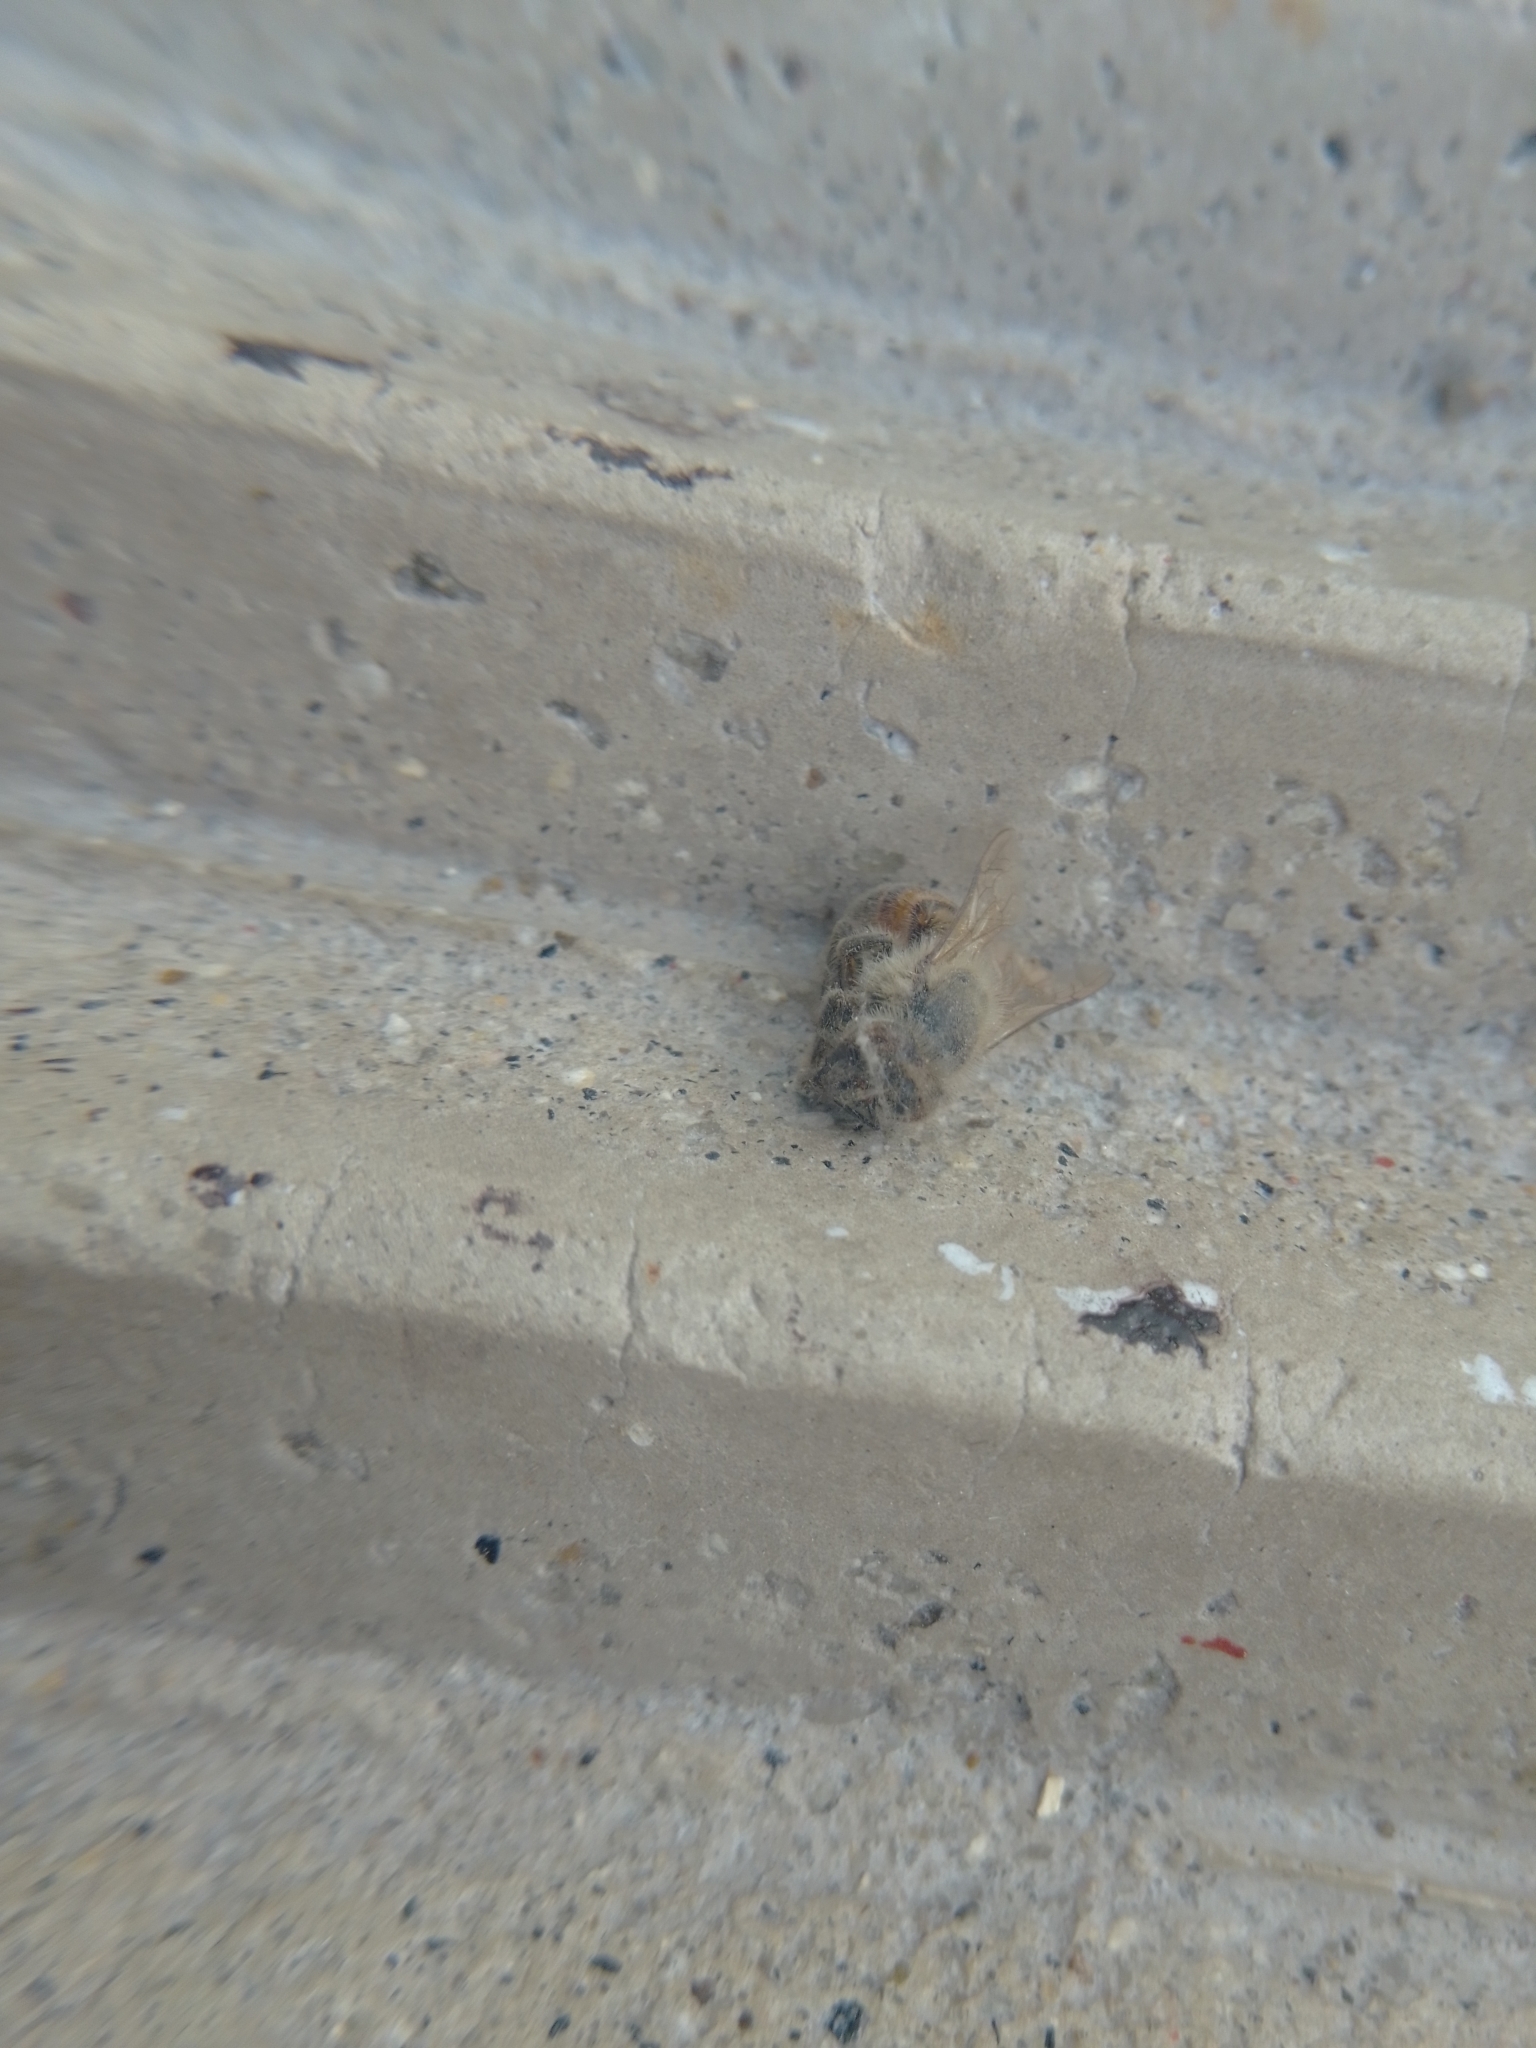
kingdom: Animalia
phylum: Arthropoda
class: Insecta
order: Hymenoptera
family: Apidae
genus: Apis
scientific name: Apis mellifera
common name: Honey bee
